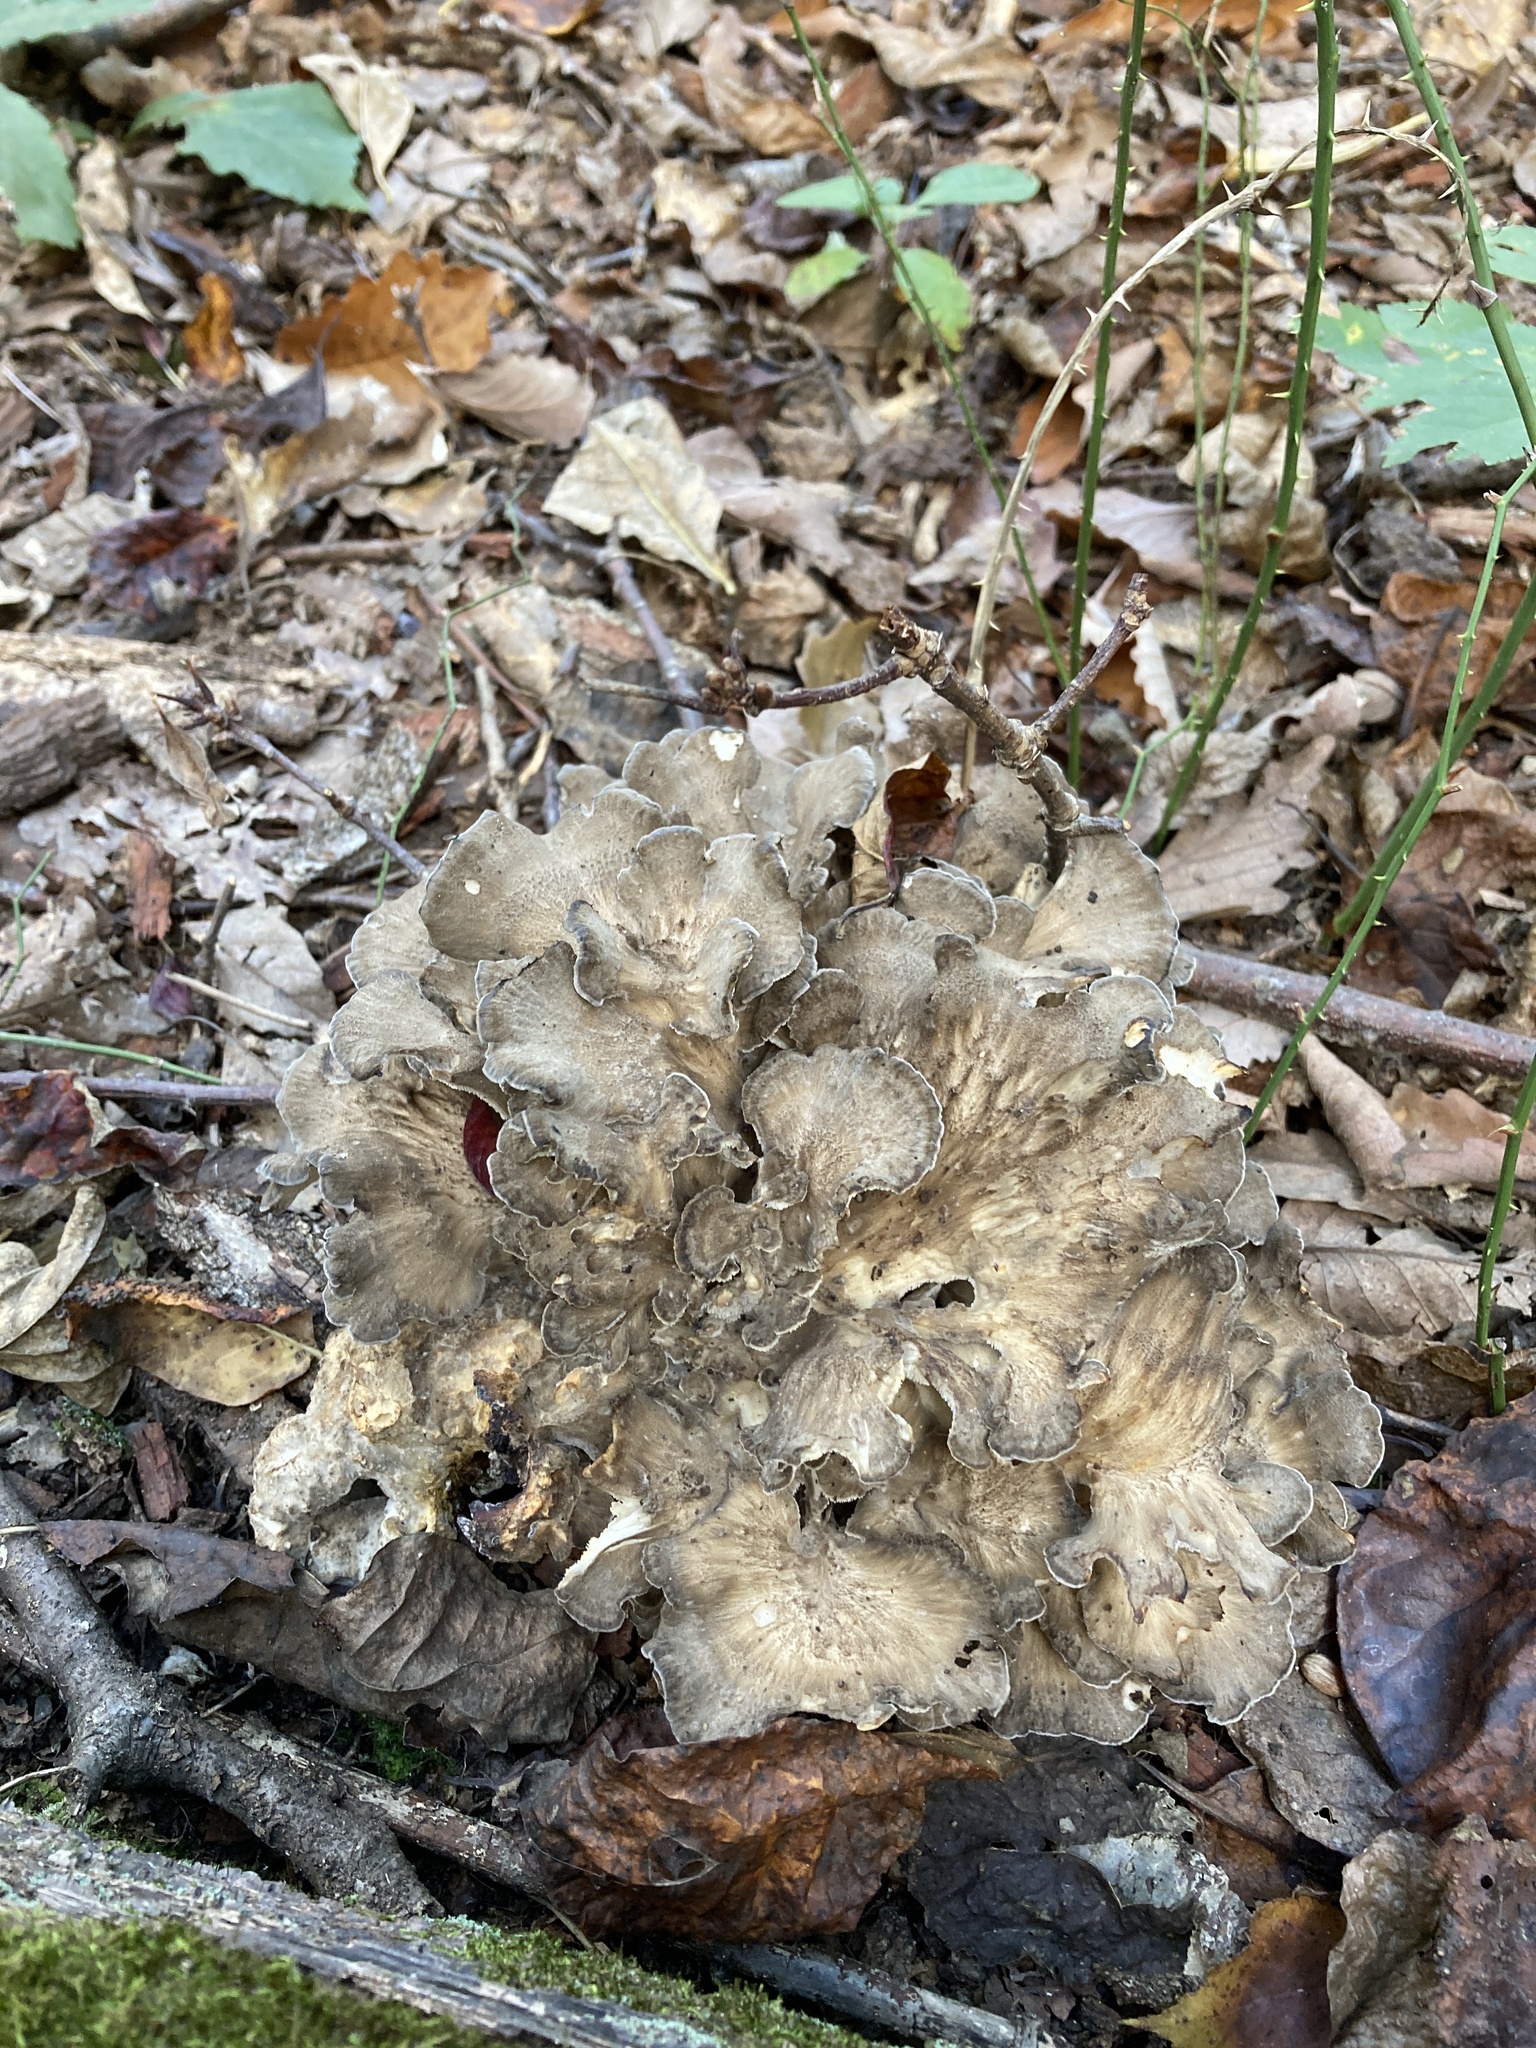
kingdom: Fungi
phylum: Basidiomycota
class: Agaricomycetes
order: Polyporales
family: Grifolaceae
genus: Grifola
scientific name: Grifola frondosa
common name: Hen of the woods
